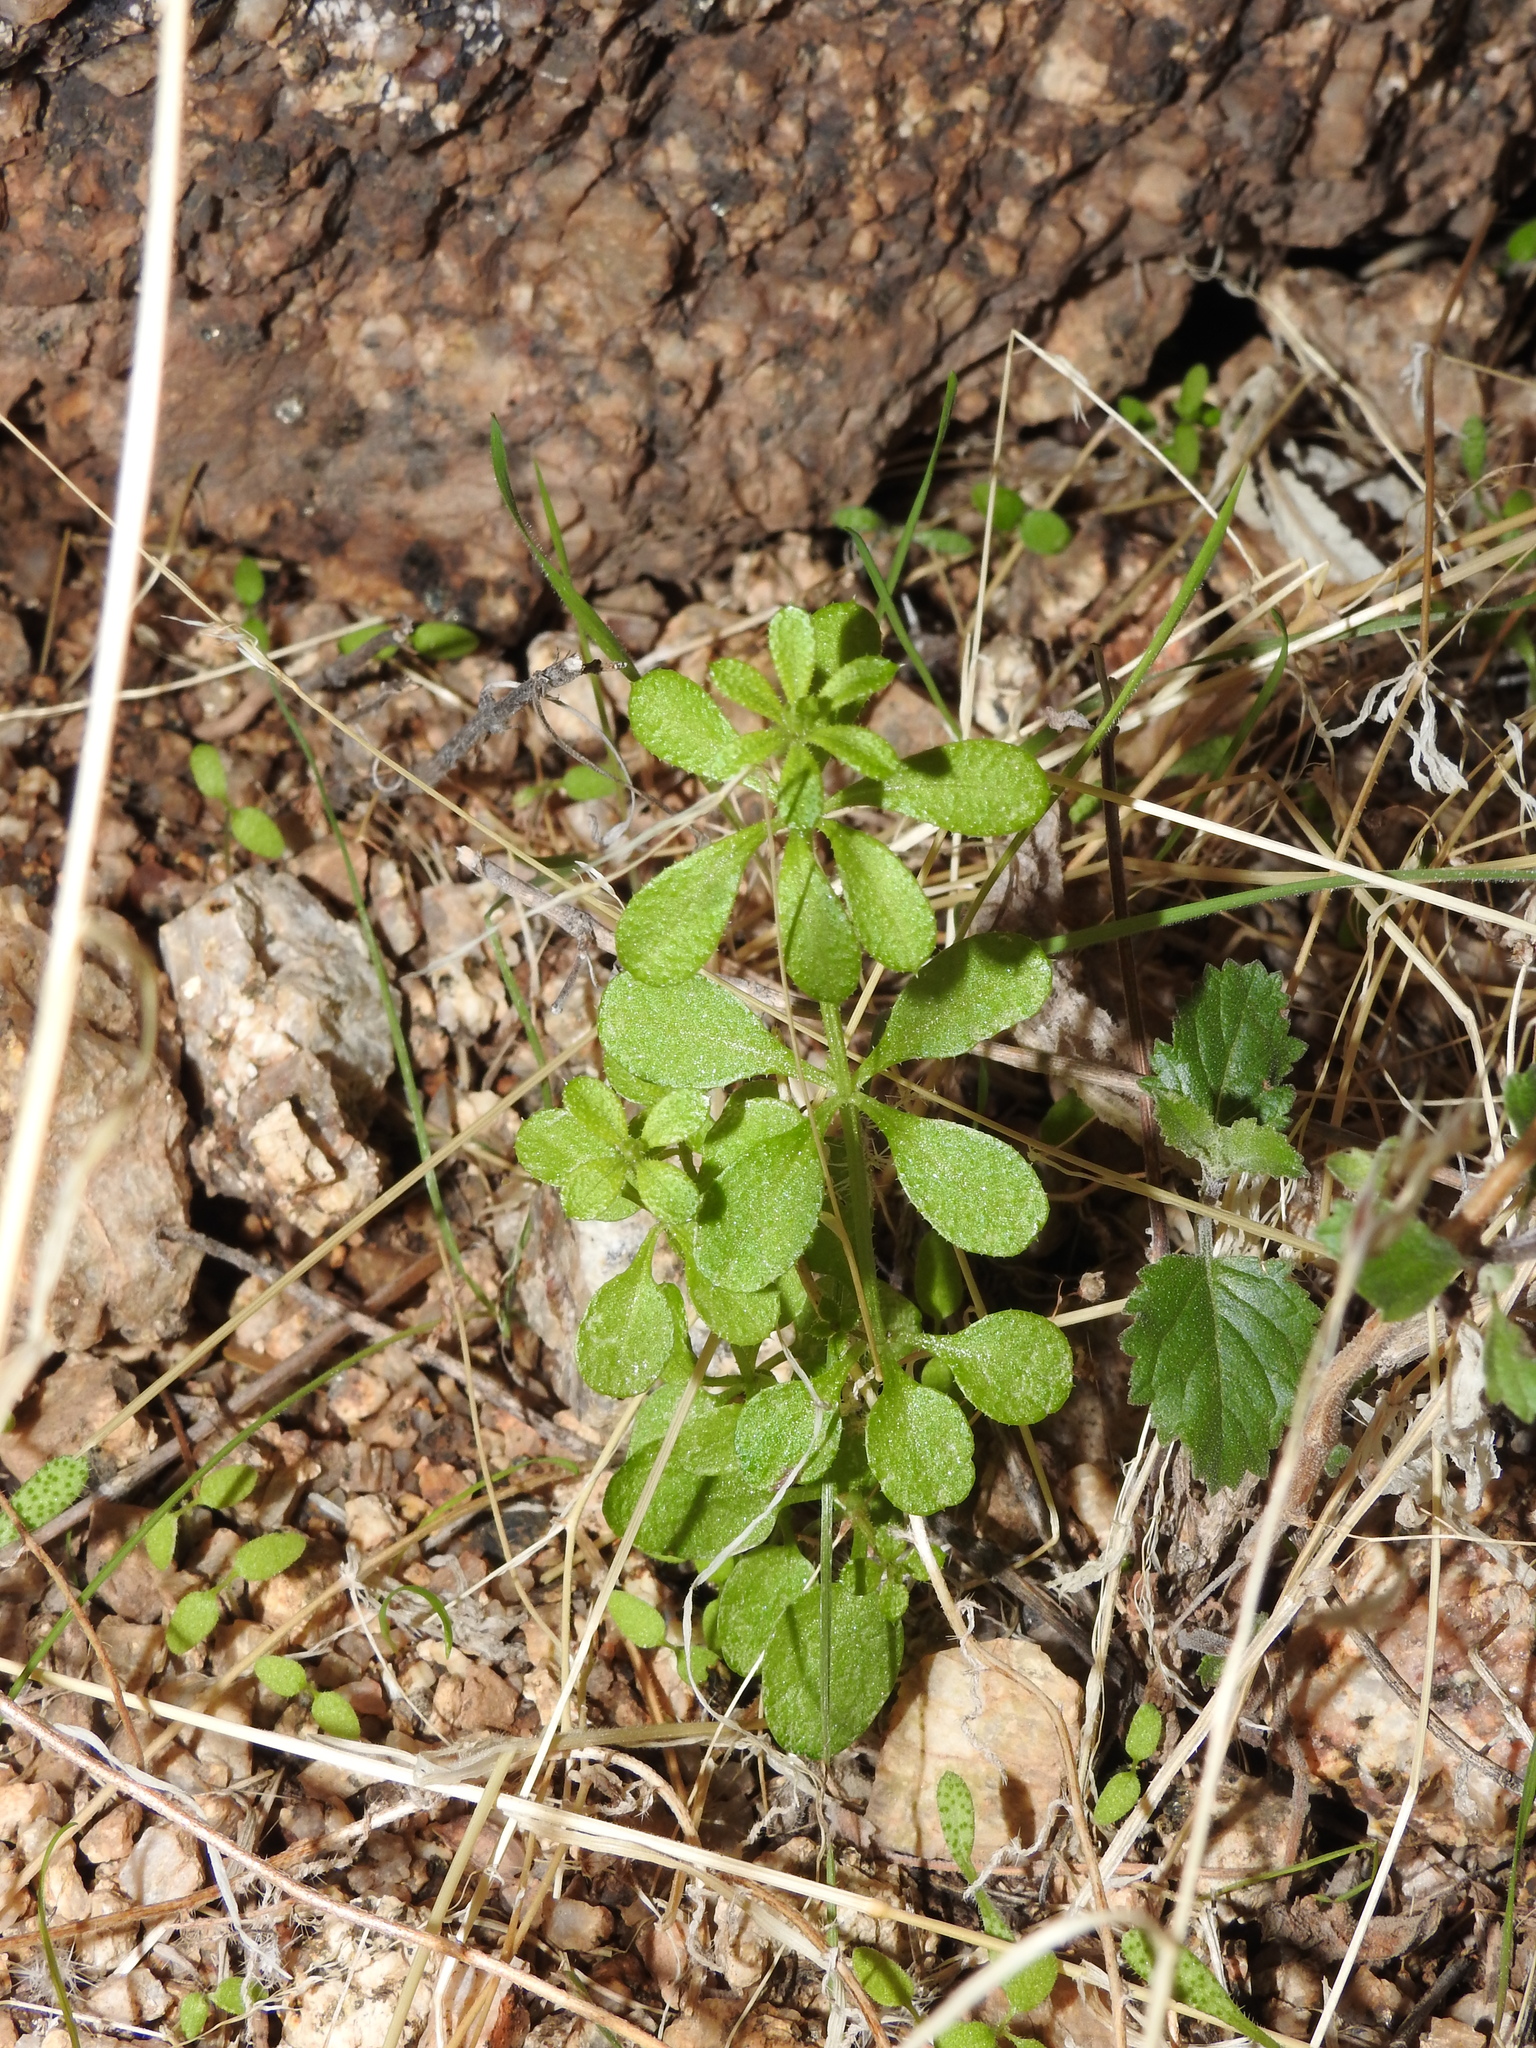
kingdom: Plantae
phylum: Tracheophyta
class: Magnoliopsida
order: Gentianales
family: Rubiaceae
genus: Galium
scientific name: Galium aparine
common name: Cleavers
